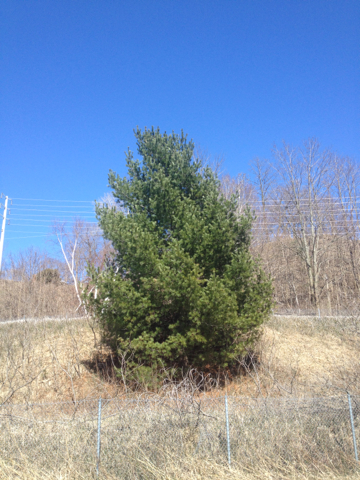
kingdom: Plantae
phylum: Tracheophyta
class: Pinopsida
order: Pinales
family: Pinaceae
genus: Pinus
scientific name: Pinus strobus
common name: Weymouth pine
